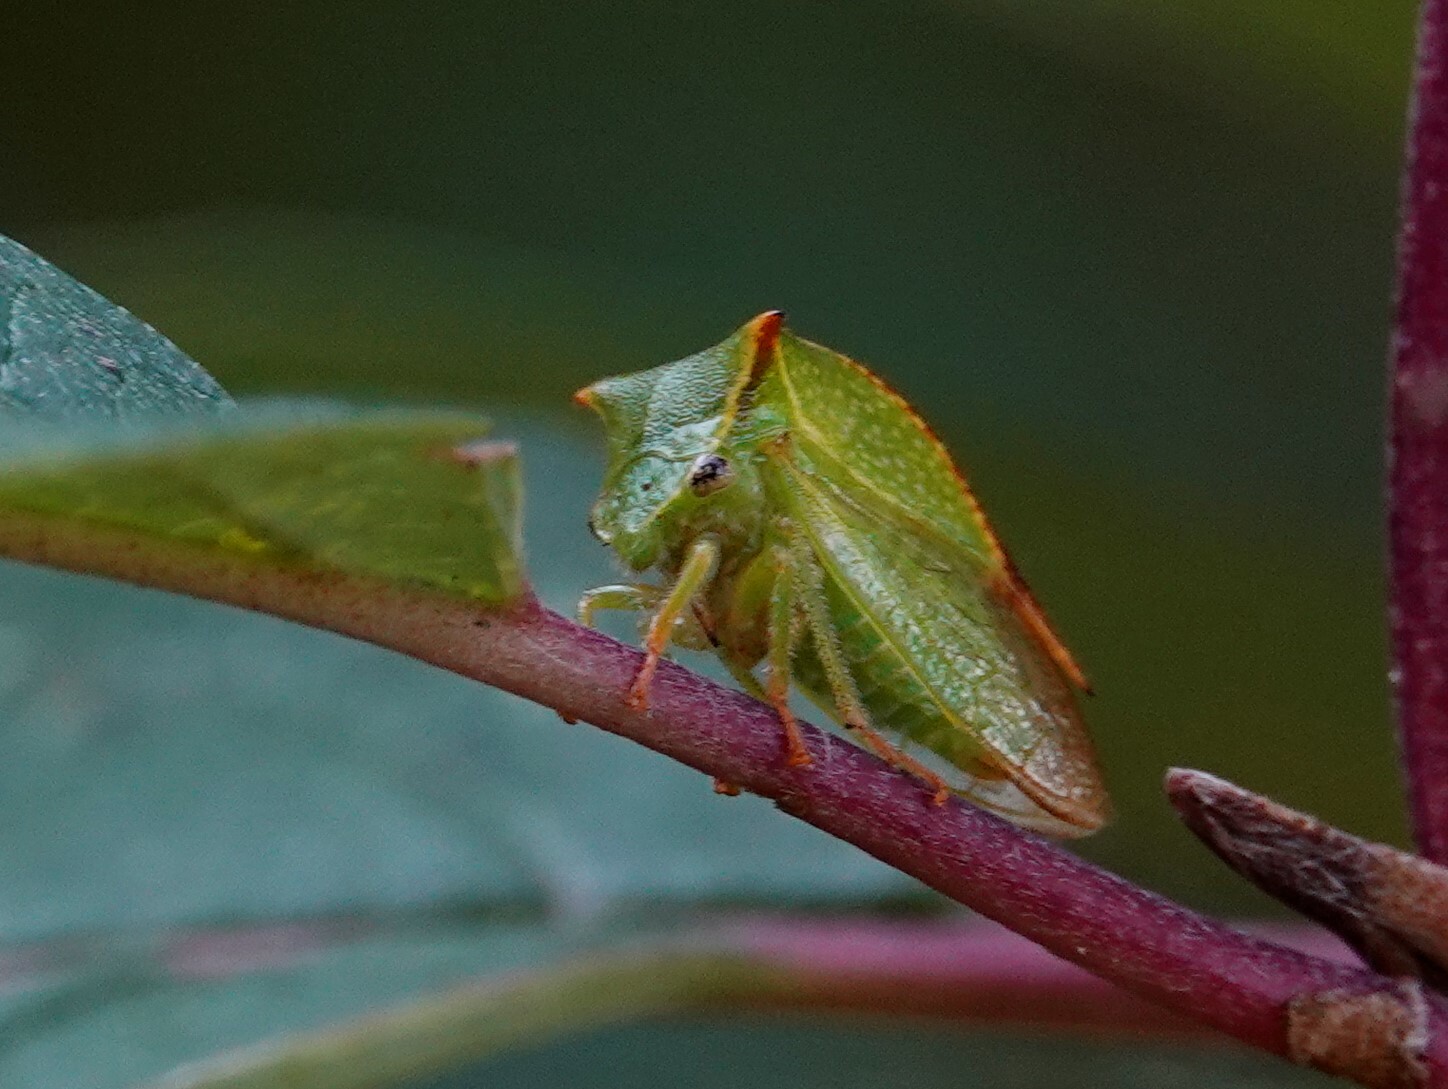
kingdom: Animalia
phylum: Arthropoda
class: Insecta
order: Hemiptera
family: Membracidae
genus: Stictocephala
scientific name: Stictocephala bisonia
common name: American buffalo treehopper
